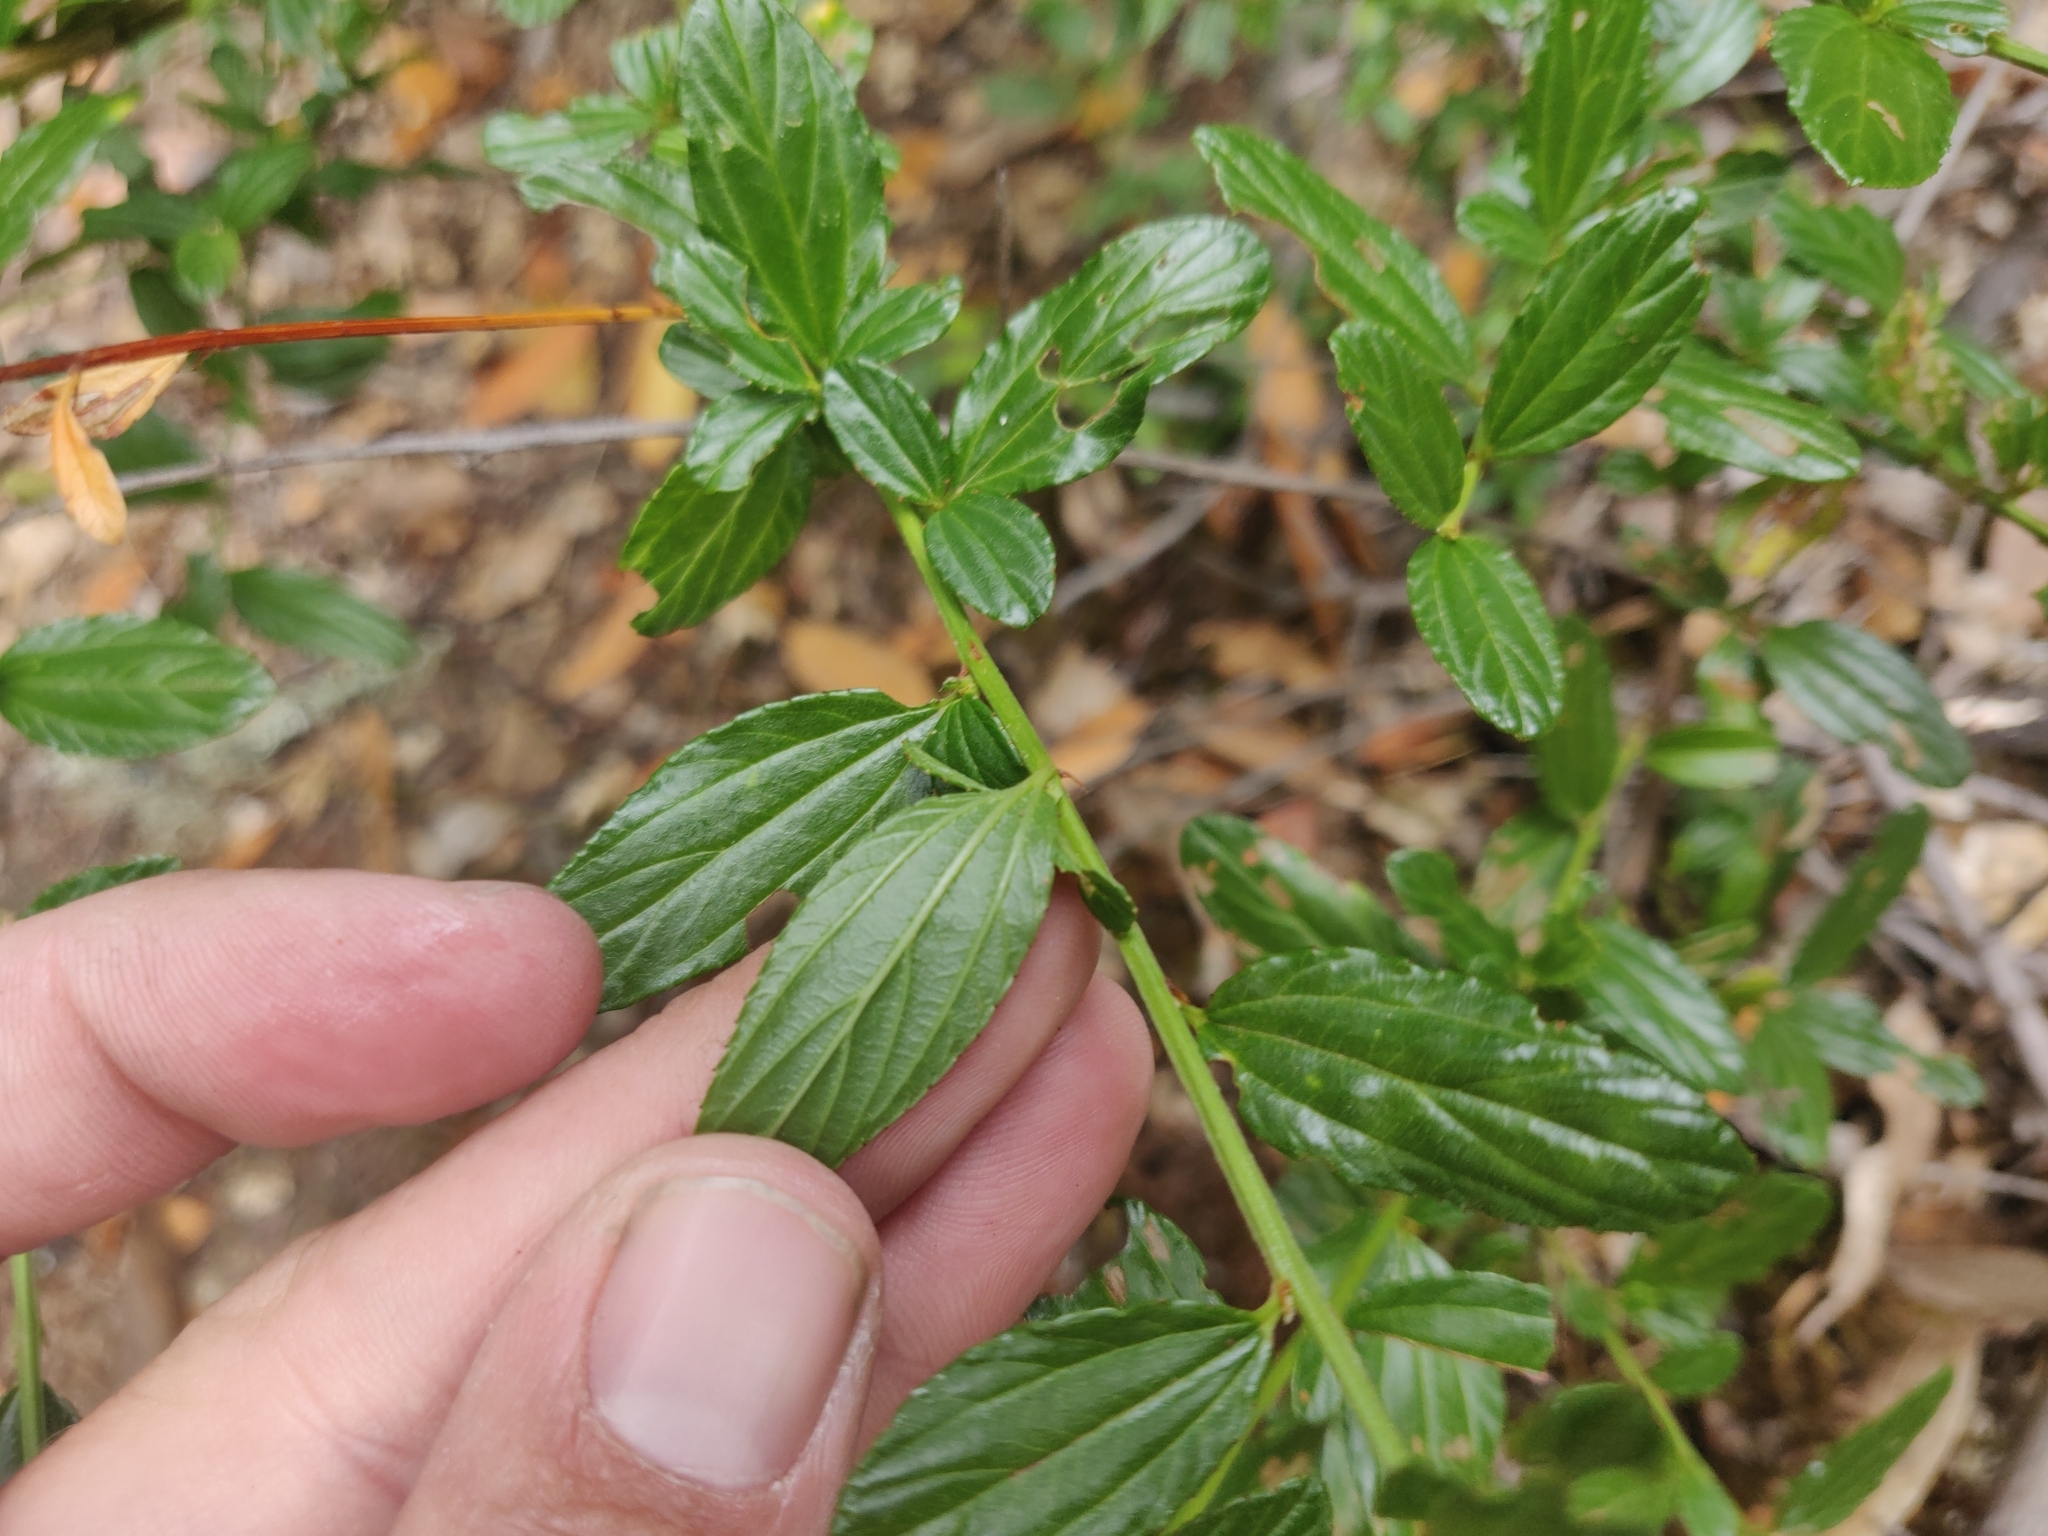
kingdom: Plantae
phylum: Tracheophyta
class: Magnoliopsida
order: Rosales
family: Rhamnaceae
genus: Ceanothus
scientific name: Ceanothus thyrsiflorus
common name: California-lilac
